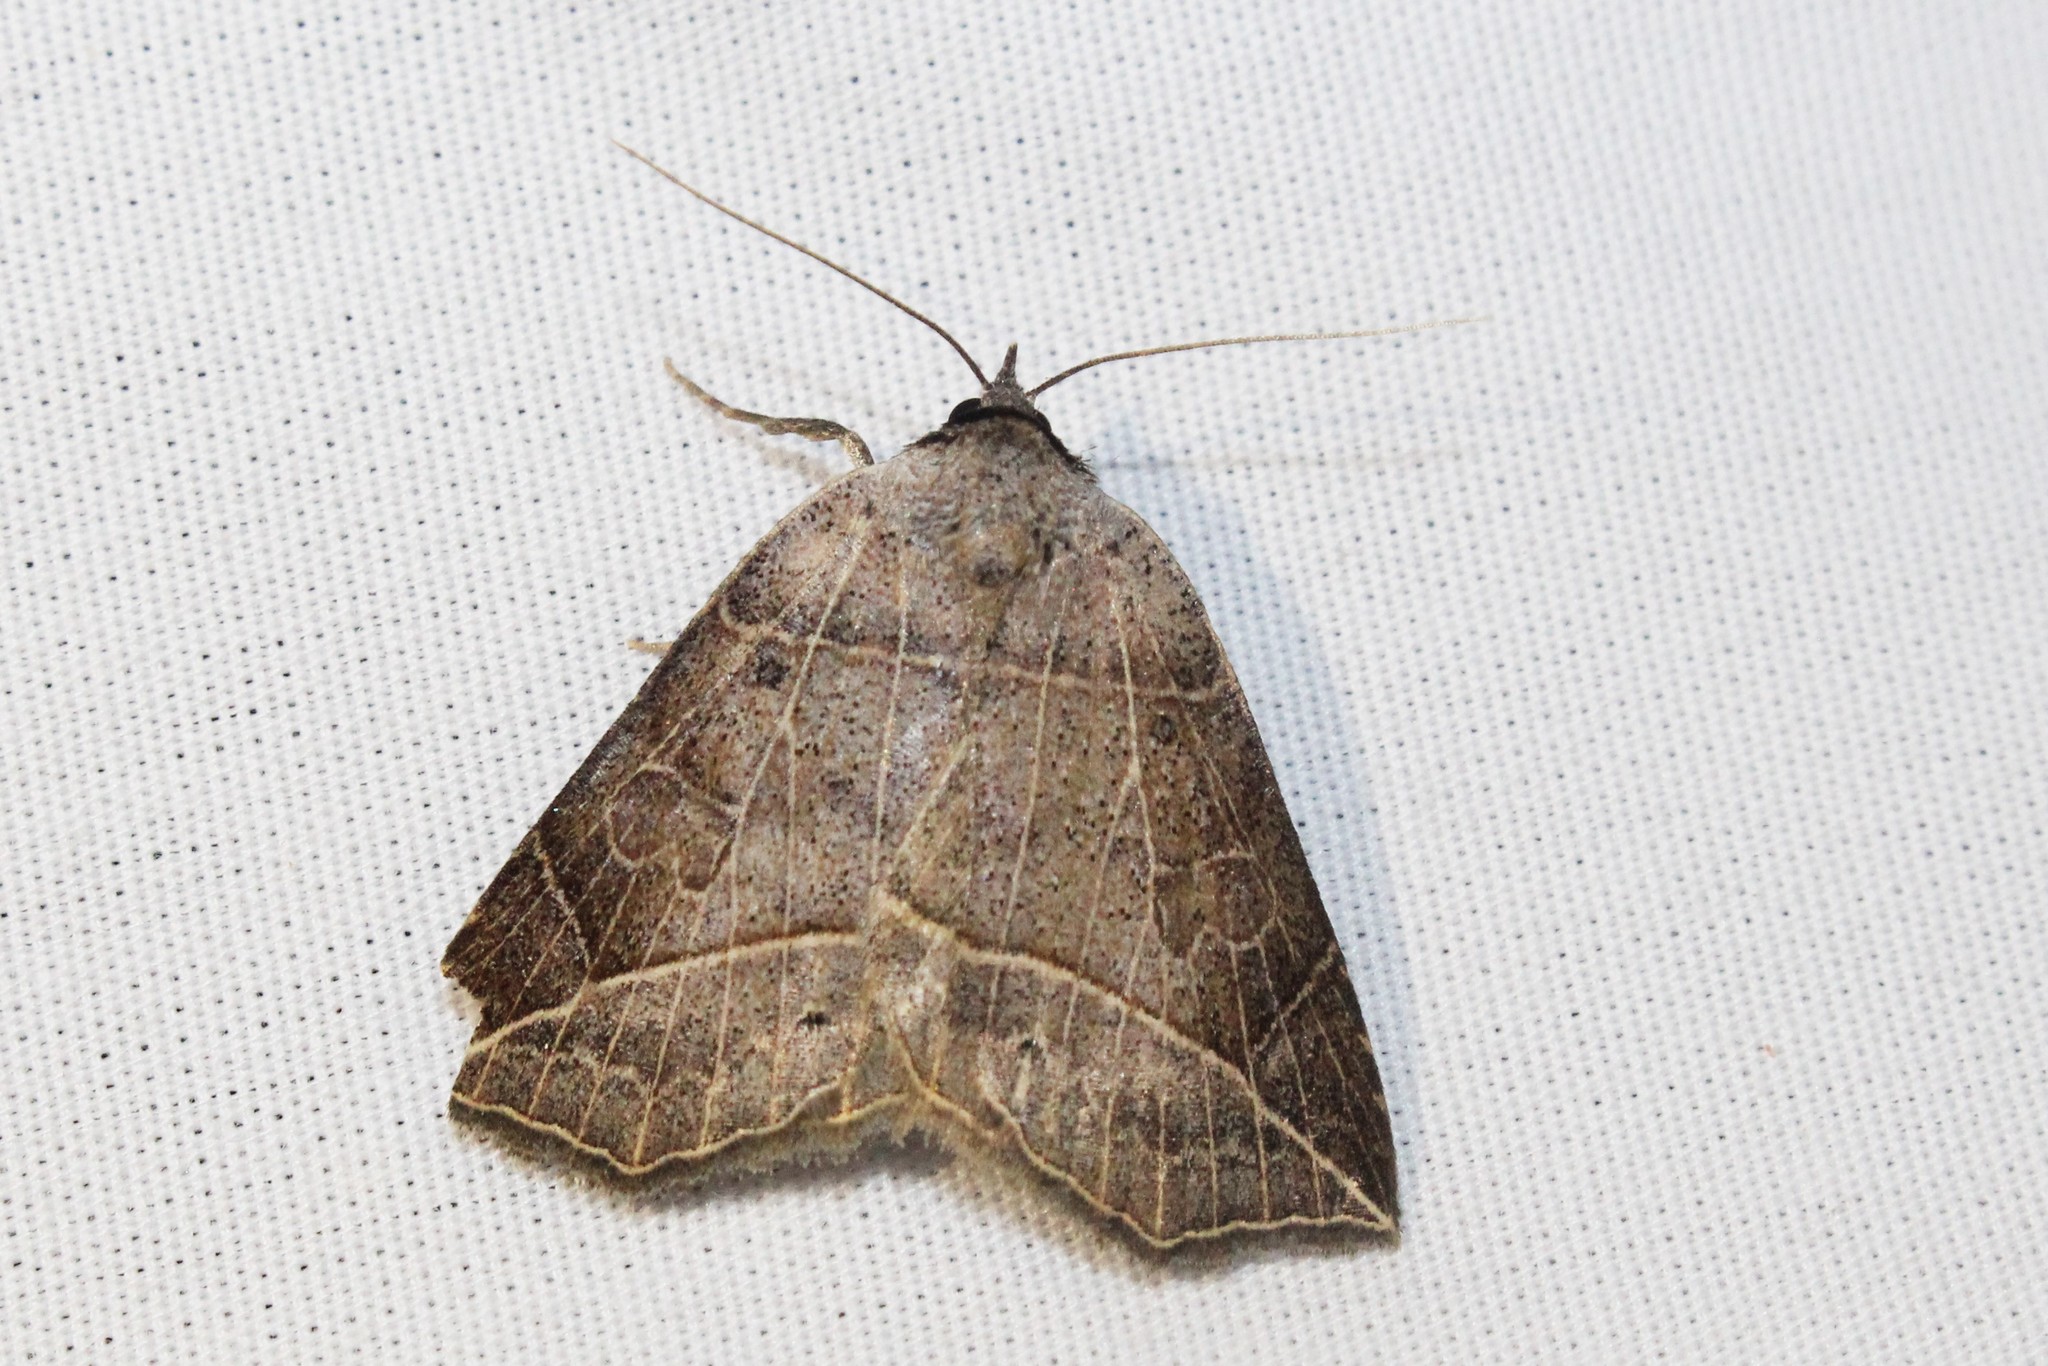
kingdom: Animalia
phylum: Arthropoda
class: Insecta
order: Lepidoptera
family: Erebidae
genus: Isogona
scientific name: Isogona tenuis
